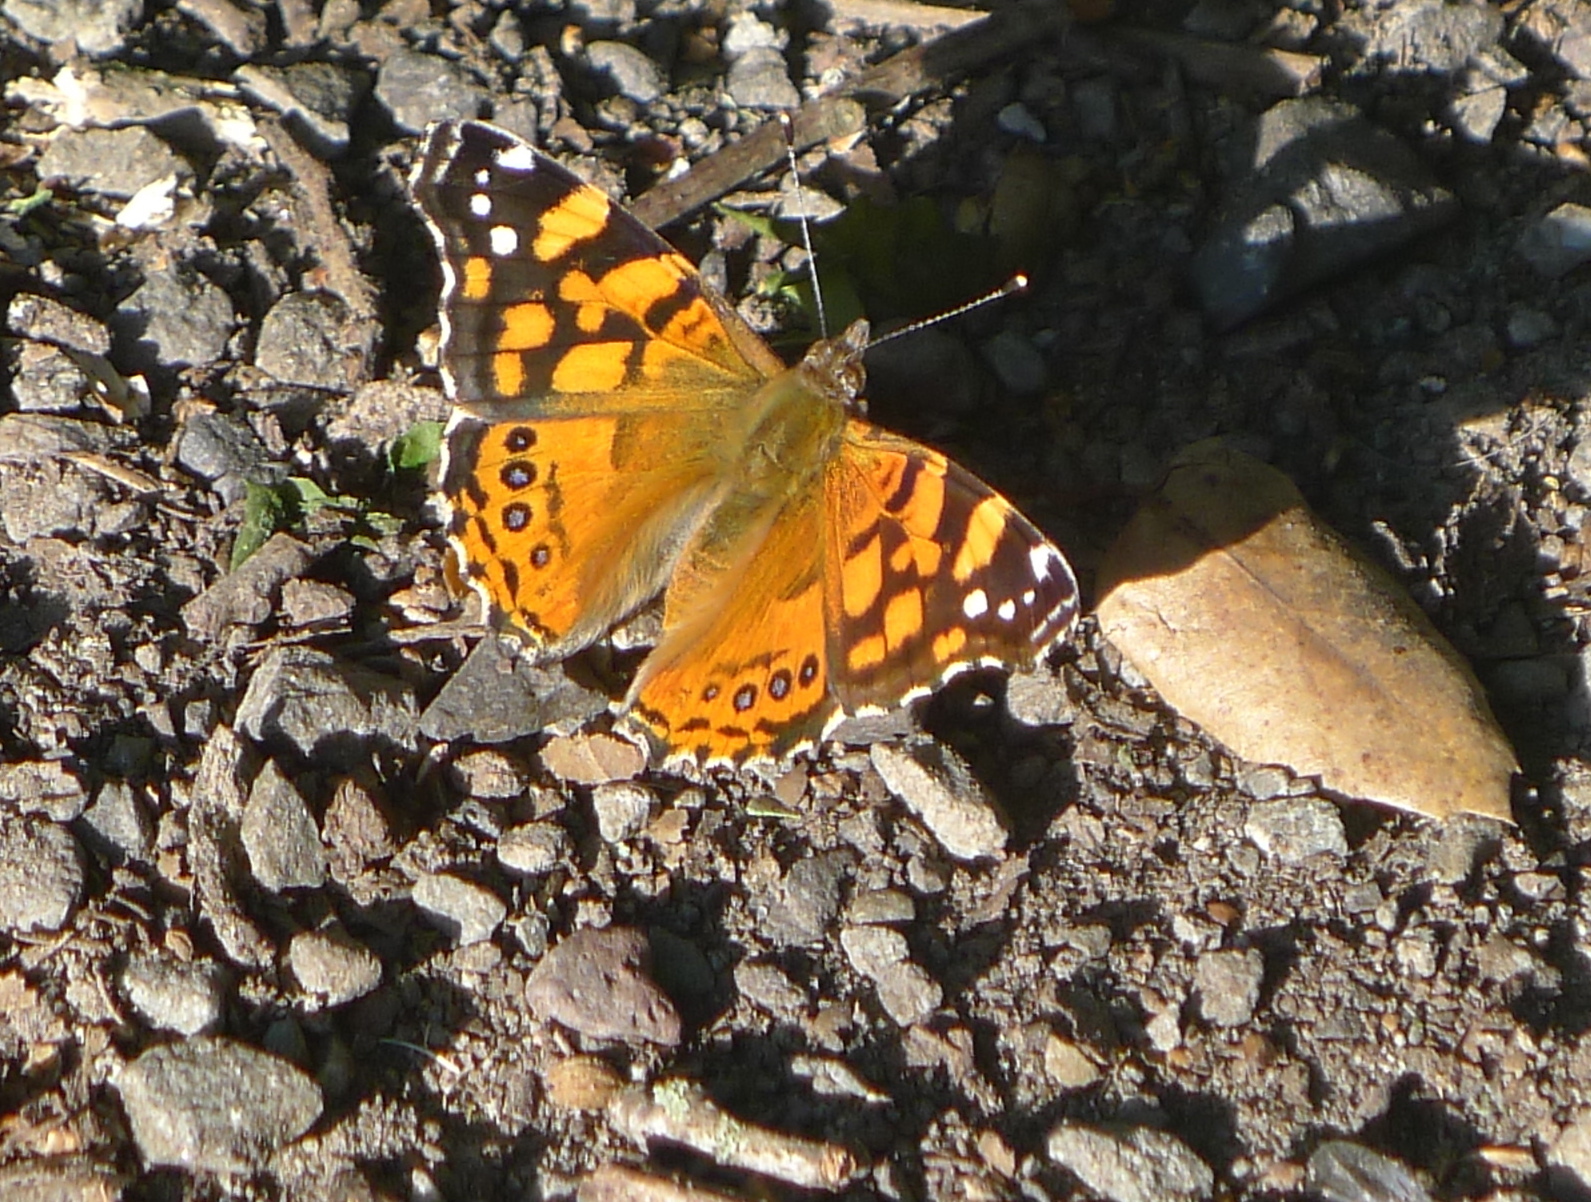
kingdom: Animalia
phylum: Arthropoda
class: Insecta
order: Lepidoptera
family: Nymphalidae
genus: Vanessa
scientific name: Vanessa atalanta
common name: Red admiral
